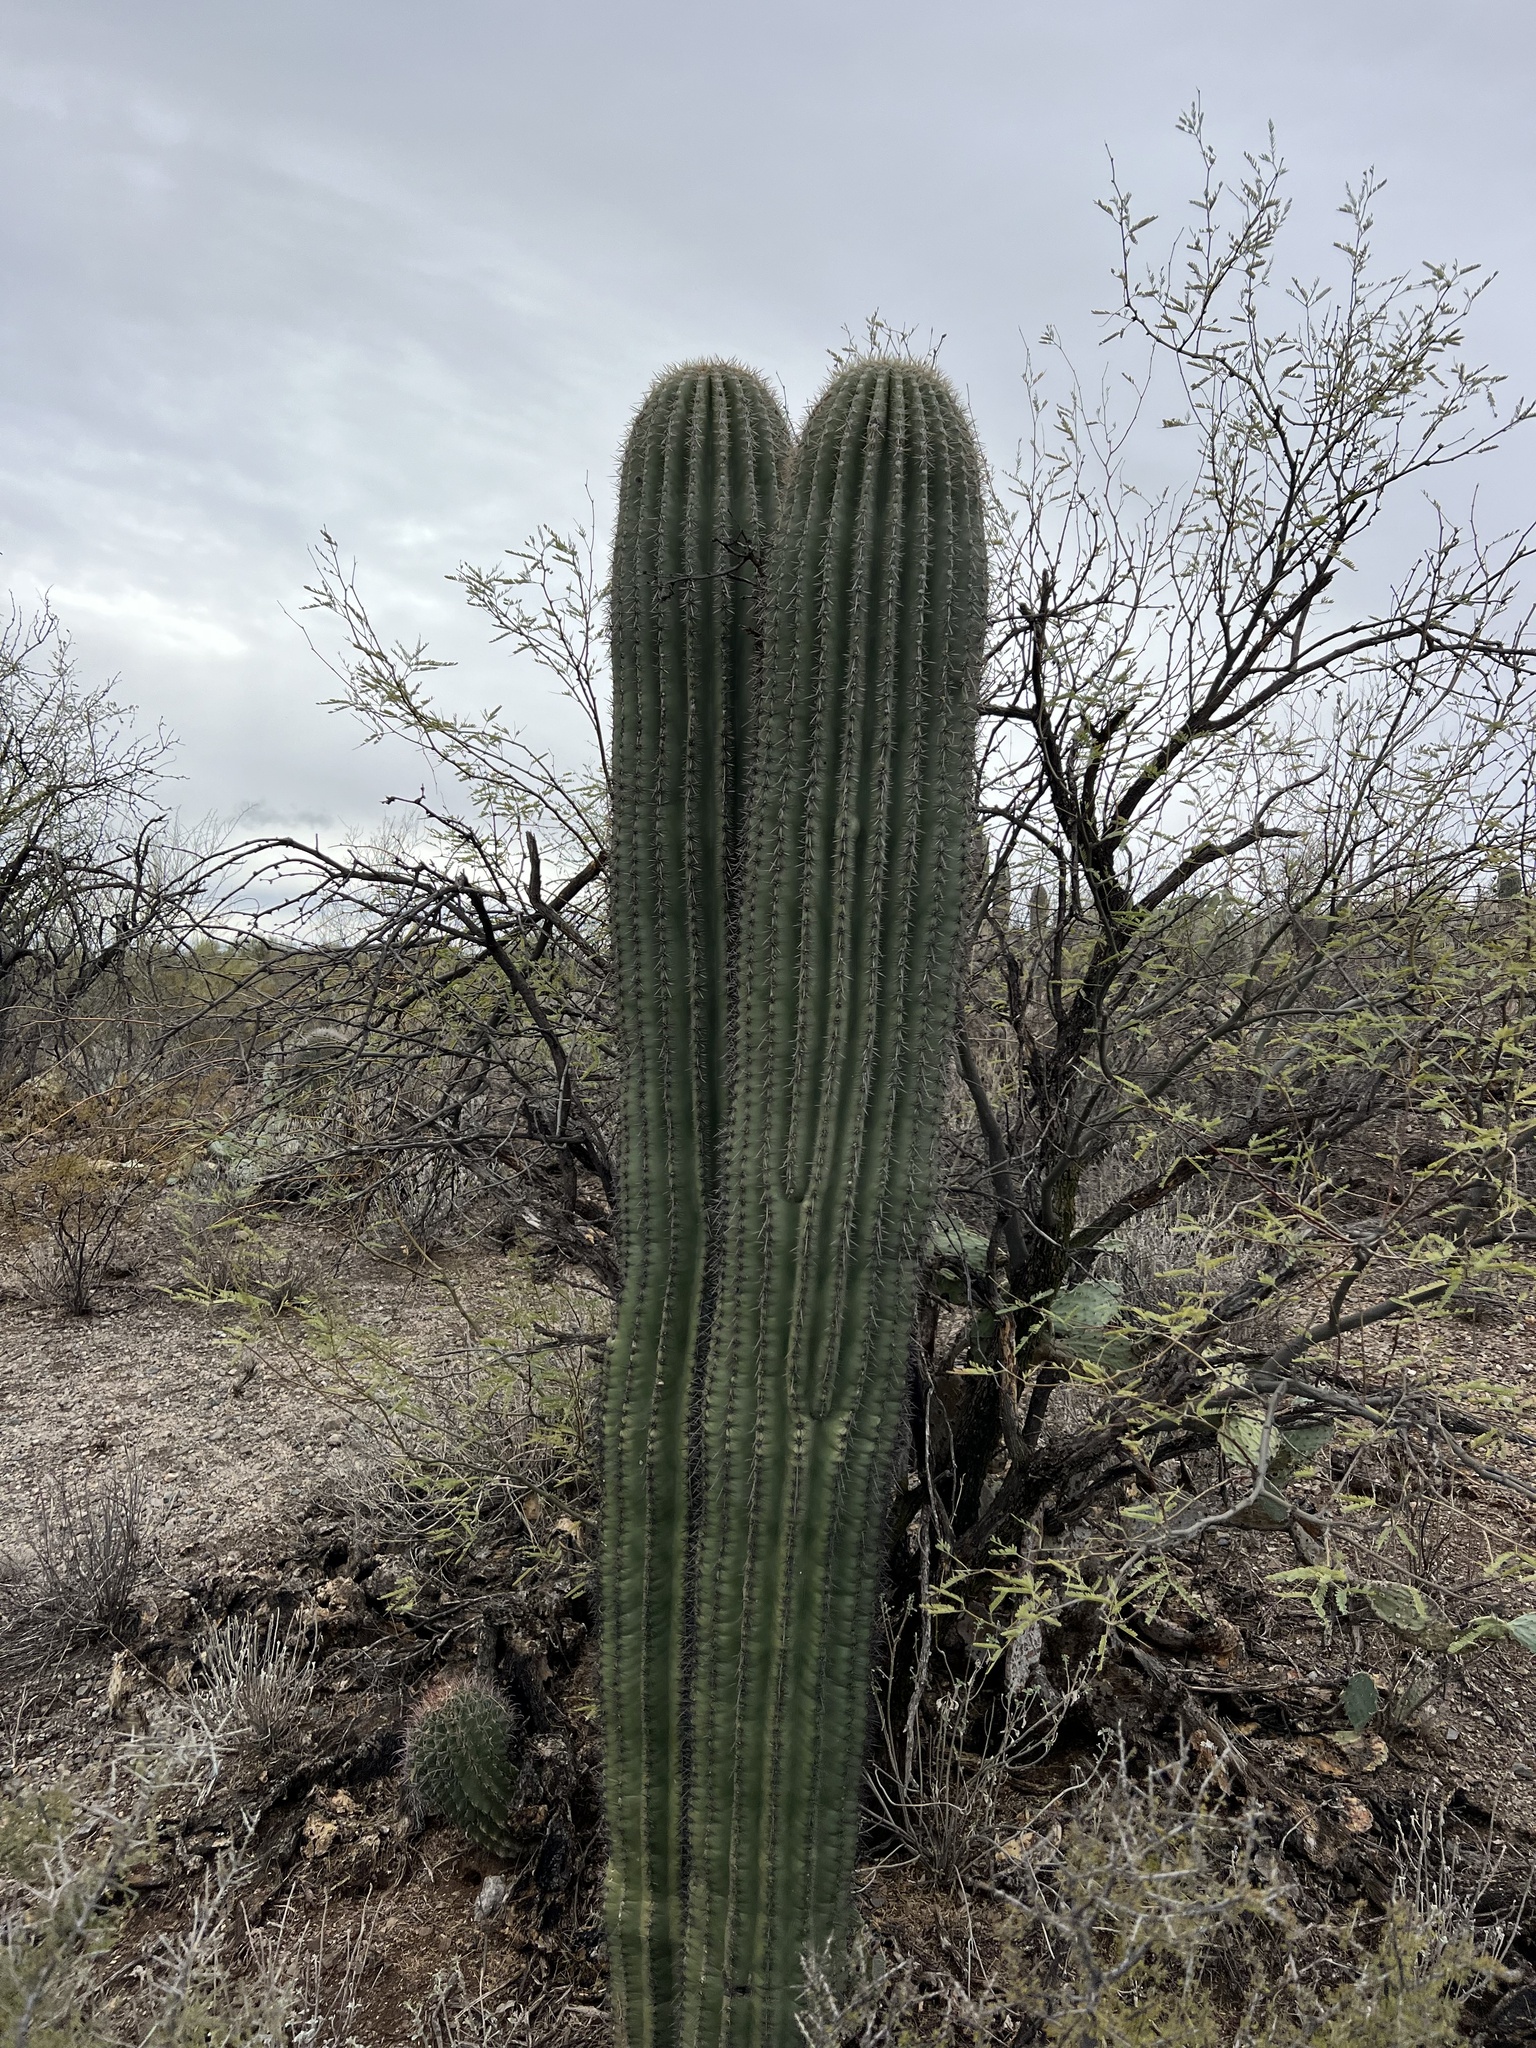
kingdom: Plantae
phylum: Tracheophyta
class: Magnoliopsida
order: Caryophyllales
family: Cactaceae
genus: Carnegiea
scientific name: Carnegiea gigantea
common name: Saguaro
